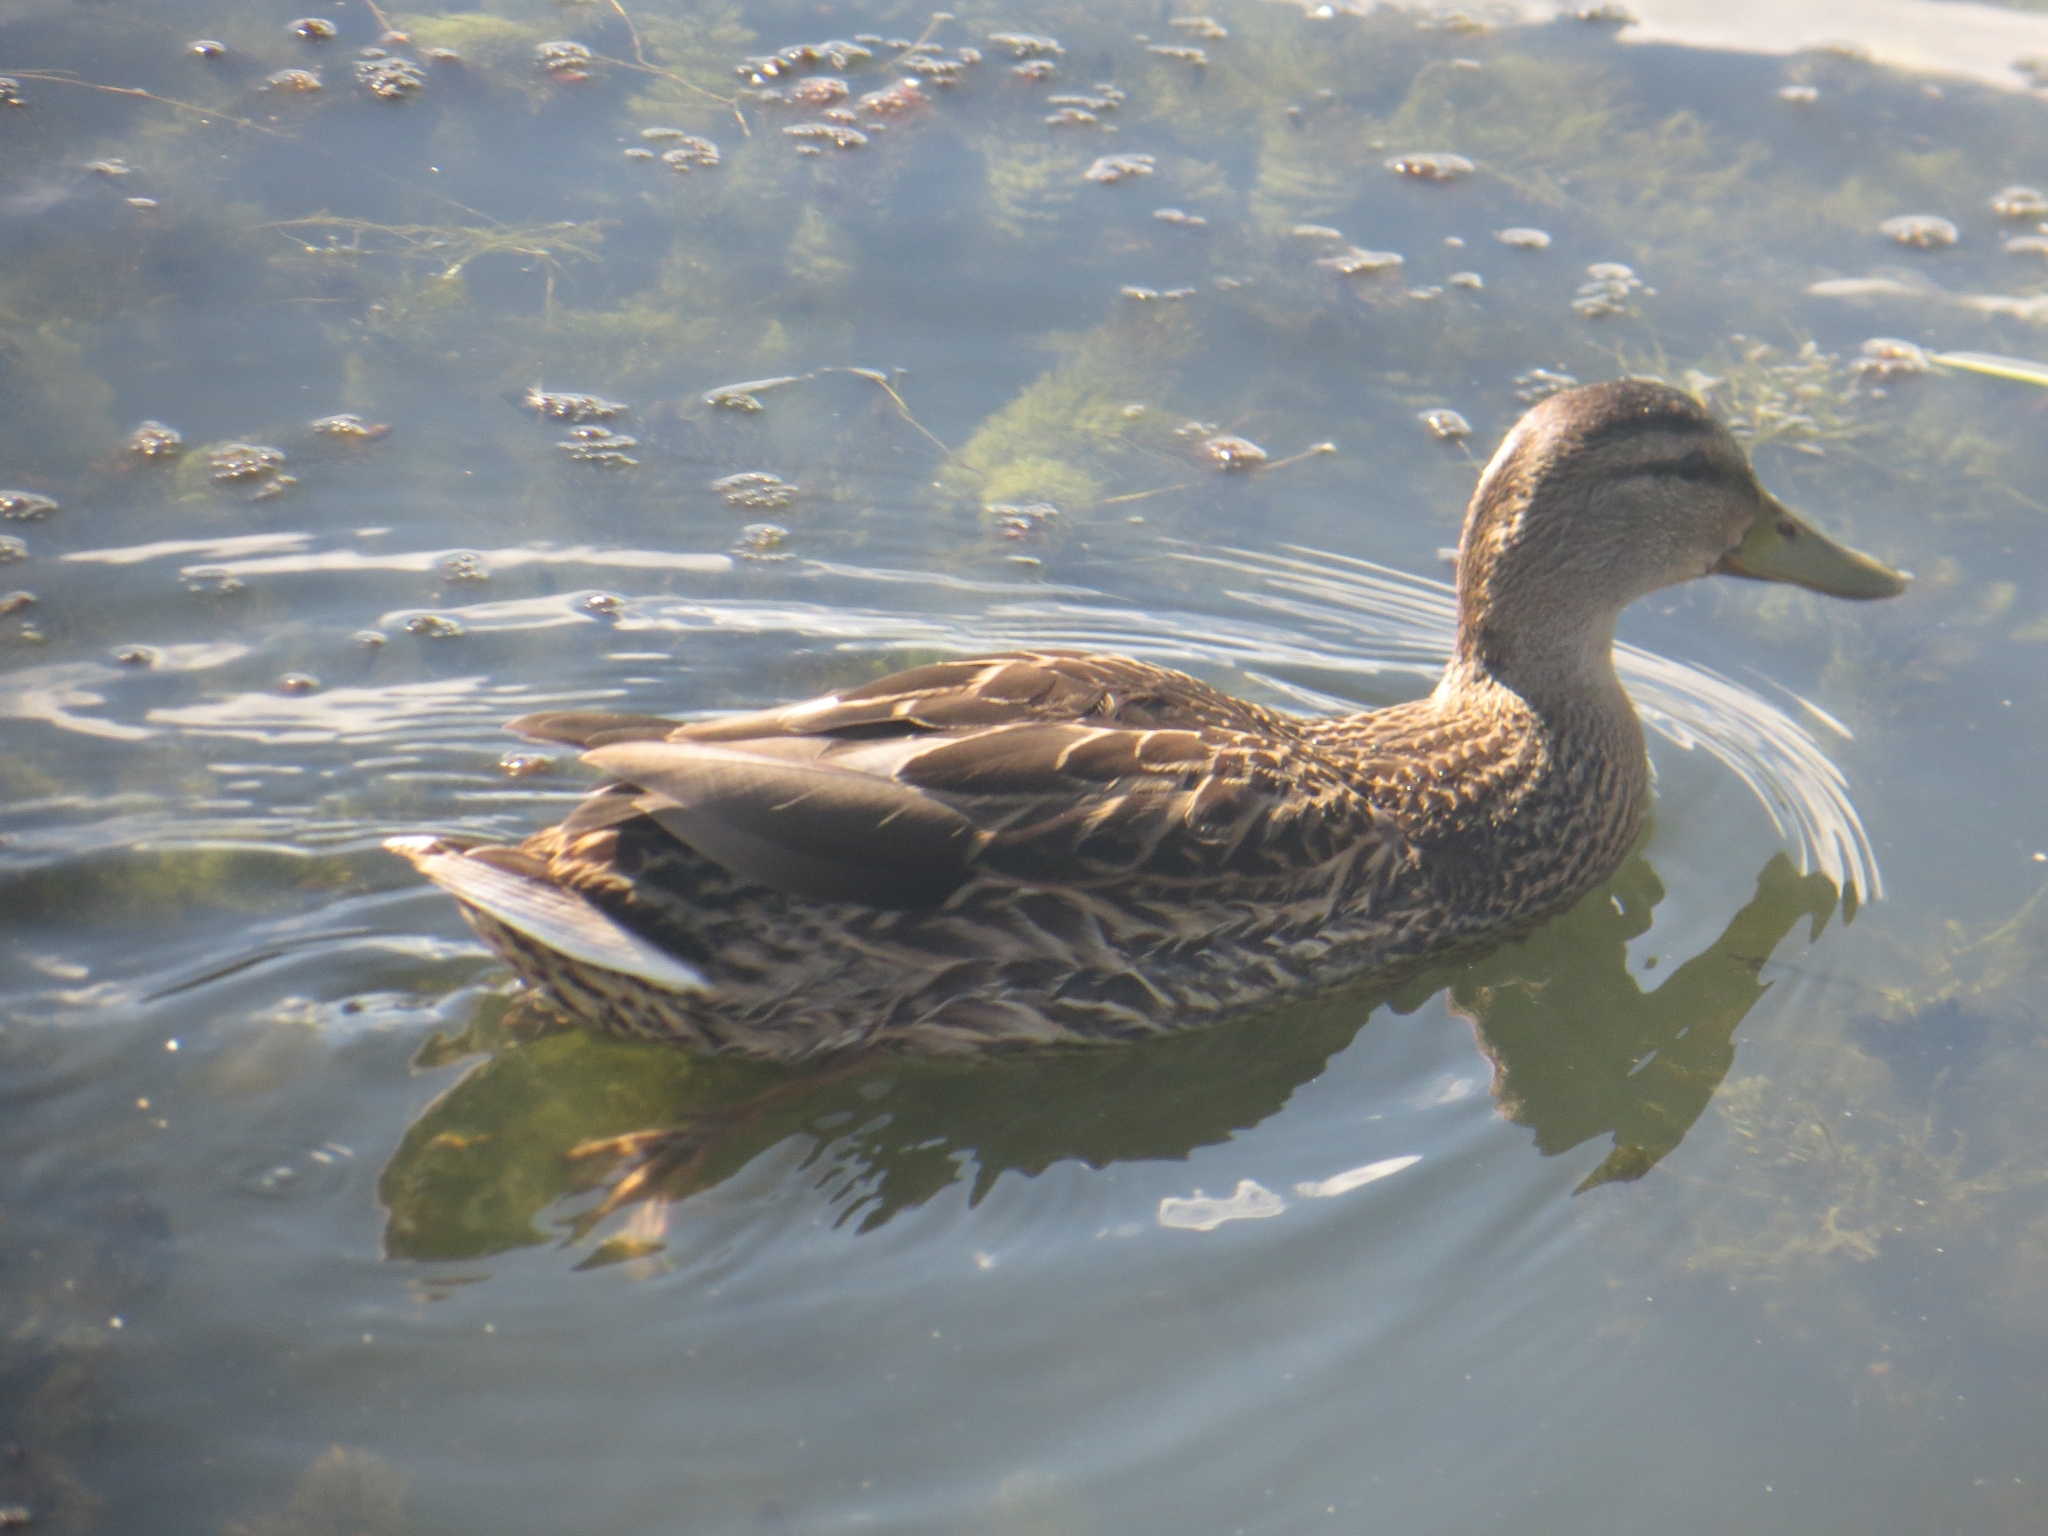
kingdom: Animalia
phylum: Chordata
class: Aves
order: Anseriformes
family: Anatidae
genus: Anas
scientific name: Anas platyrhynchos
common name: Mallard
